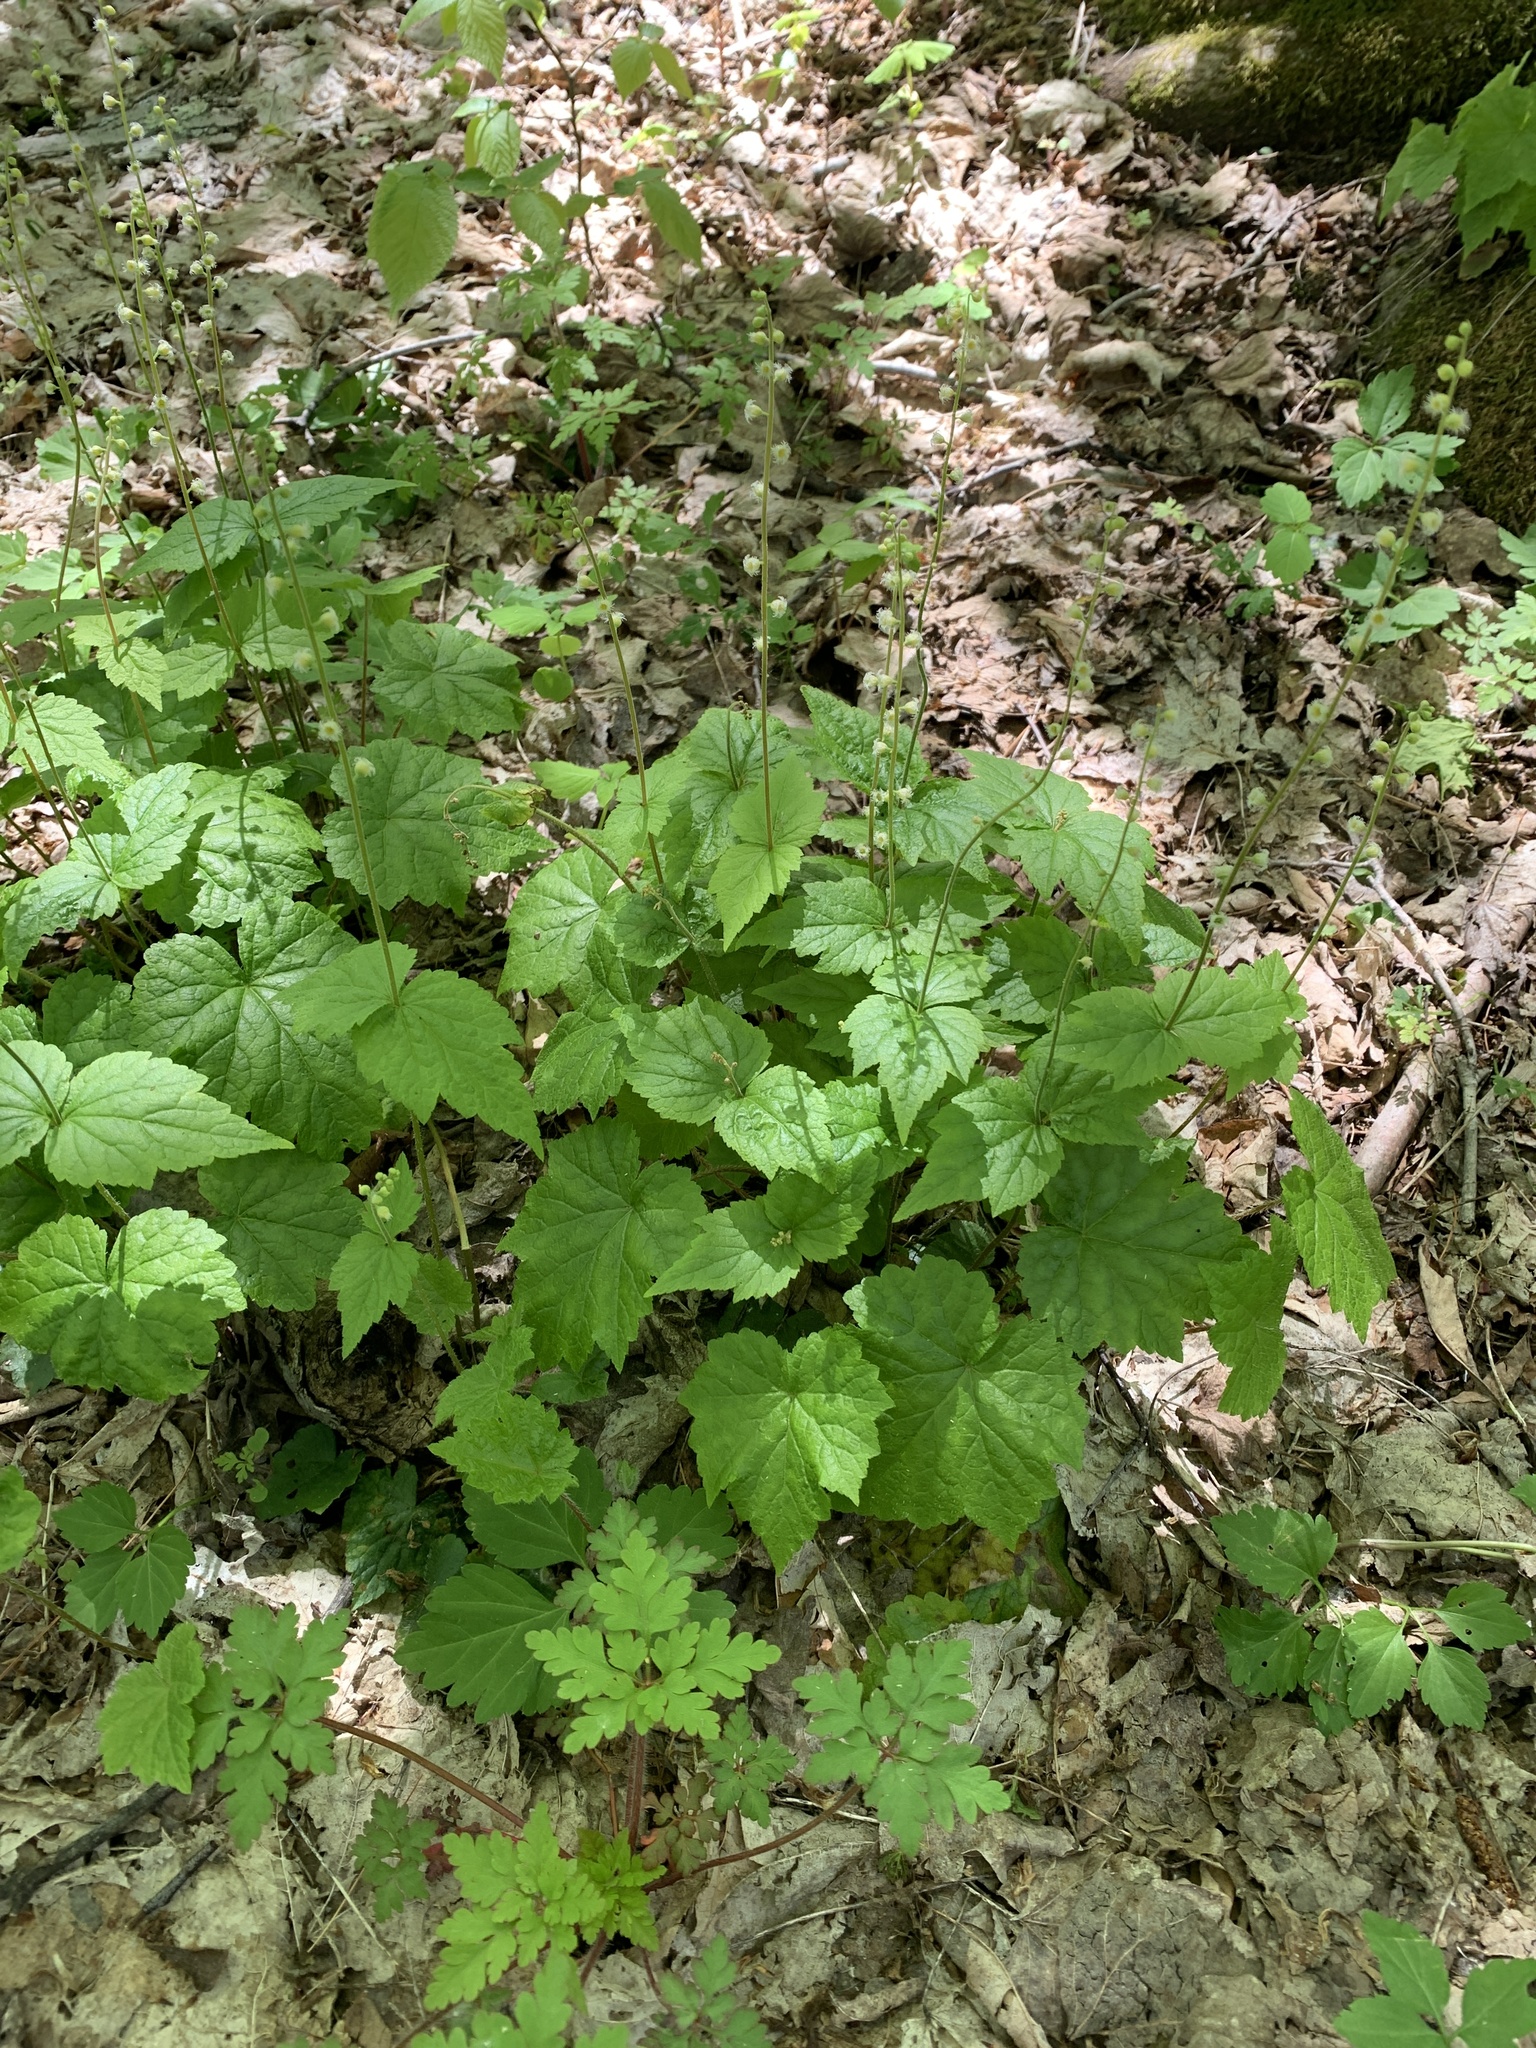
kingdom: Plantae
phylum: Tracheophyta
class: Magnoliopsida
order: Saxifragales
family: Saxifragaceae
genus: Mitella
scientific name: Mitella diphylla
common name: Coolwort
